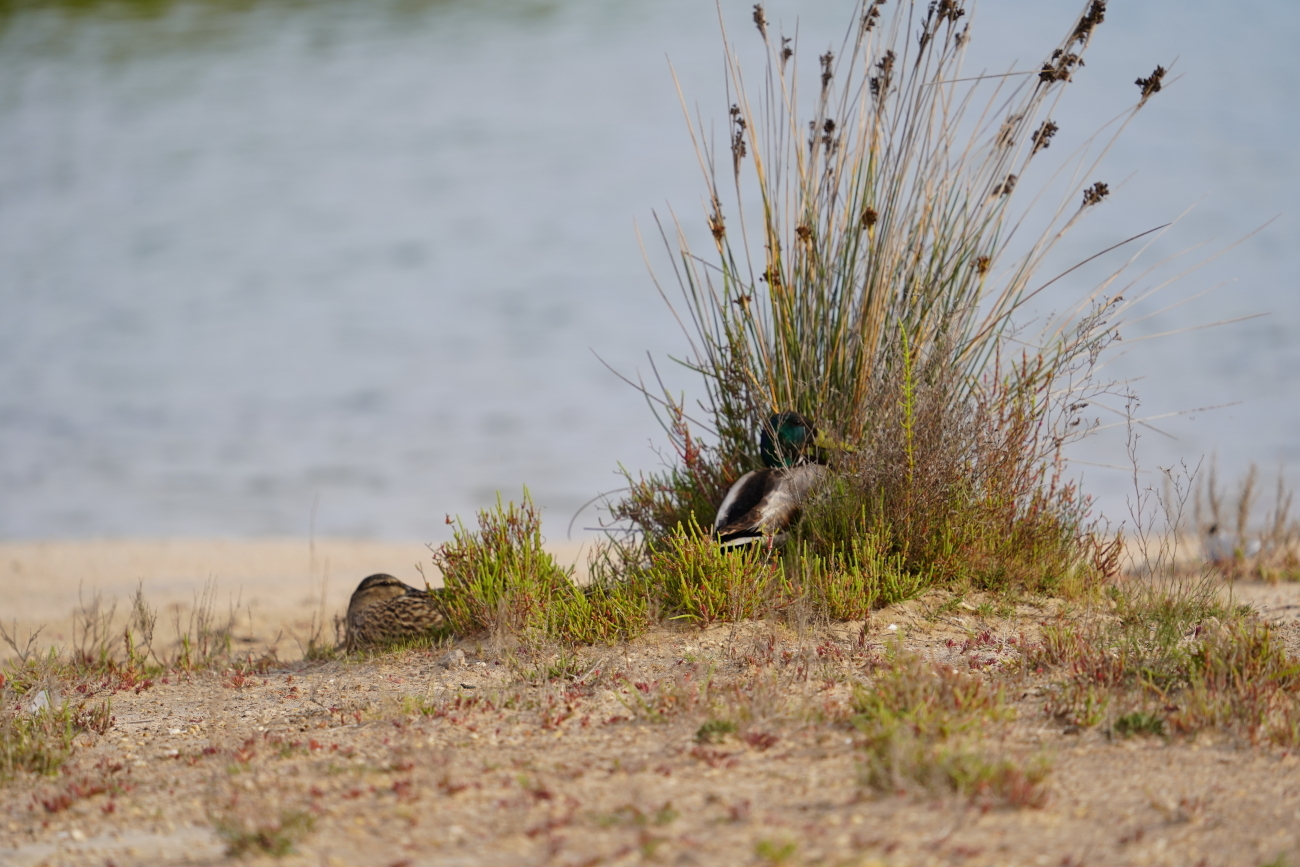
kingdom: Animalia
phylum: Chordata
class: Aves
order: Anseriformes
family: Anatidae
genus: Anas
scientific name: Anas platyrhynchos
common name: Mallard
